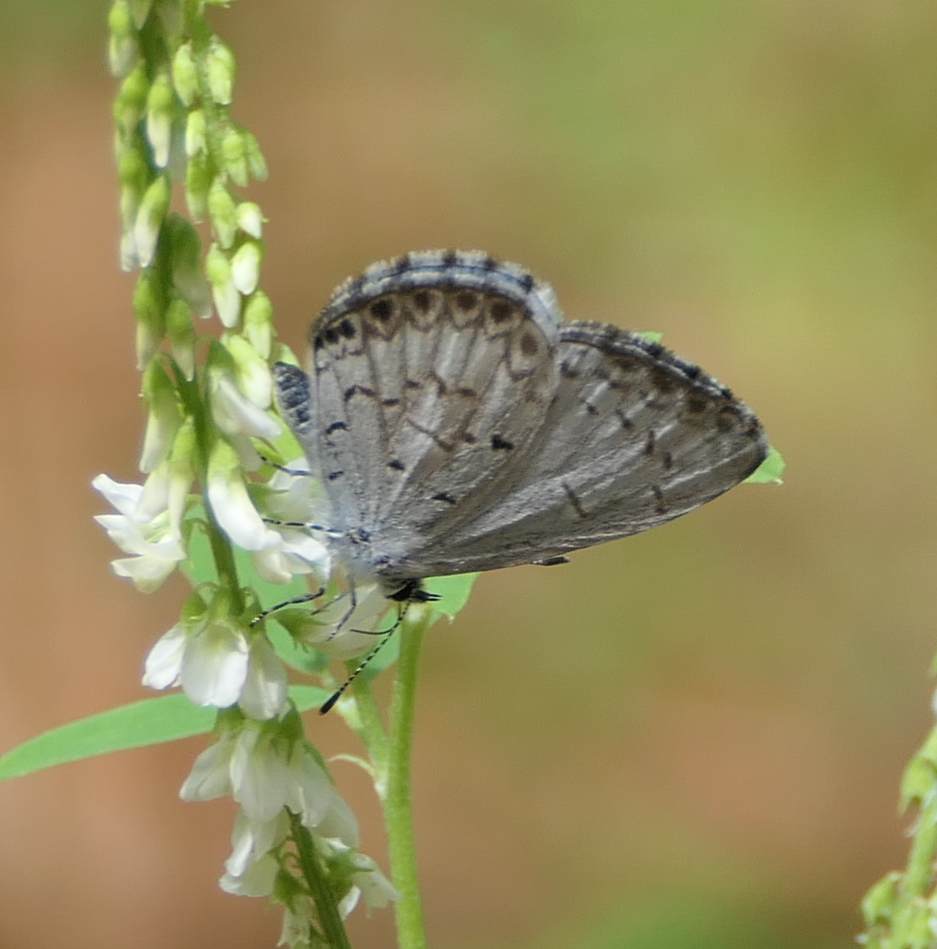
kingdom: Animalia
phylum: Arthropoda
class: Insecta
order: Lepidoptera
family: Lycaenidae
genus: Celastrina
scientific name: Celastrina lucia
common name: Lucia azure
